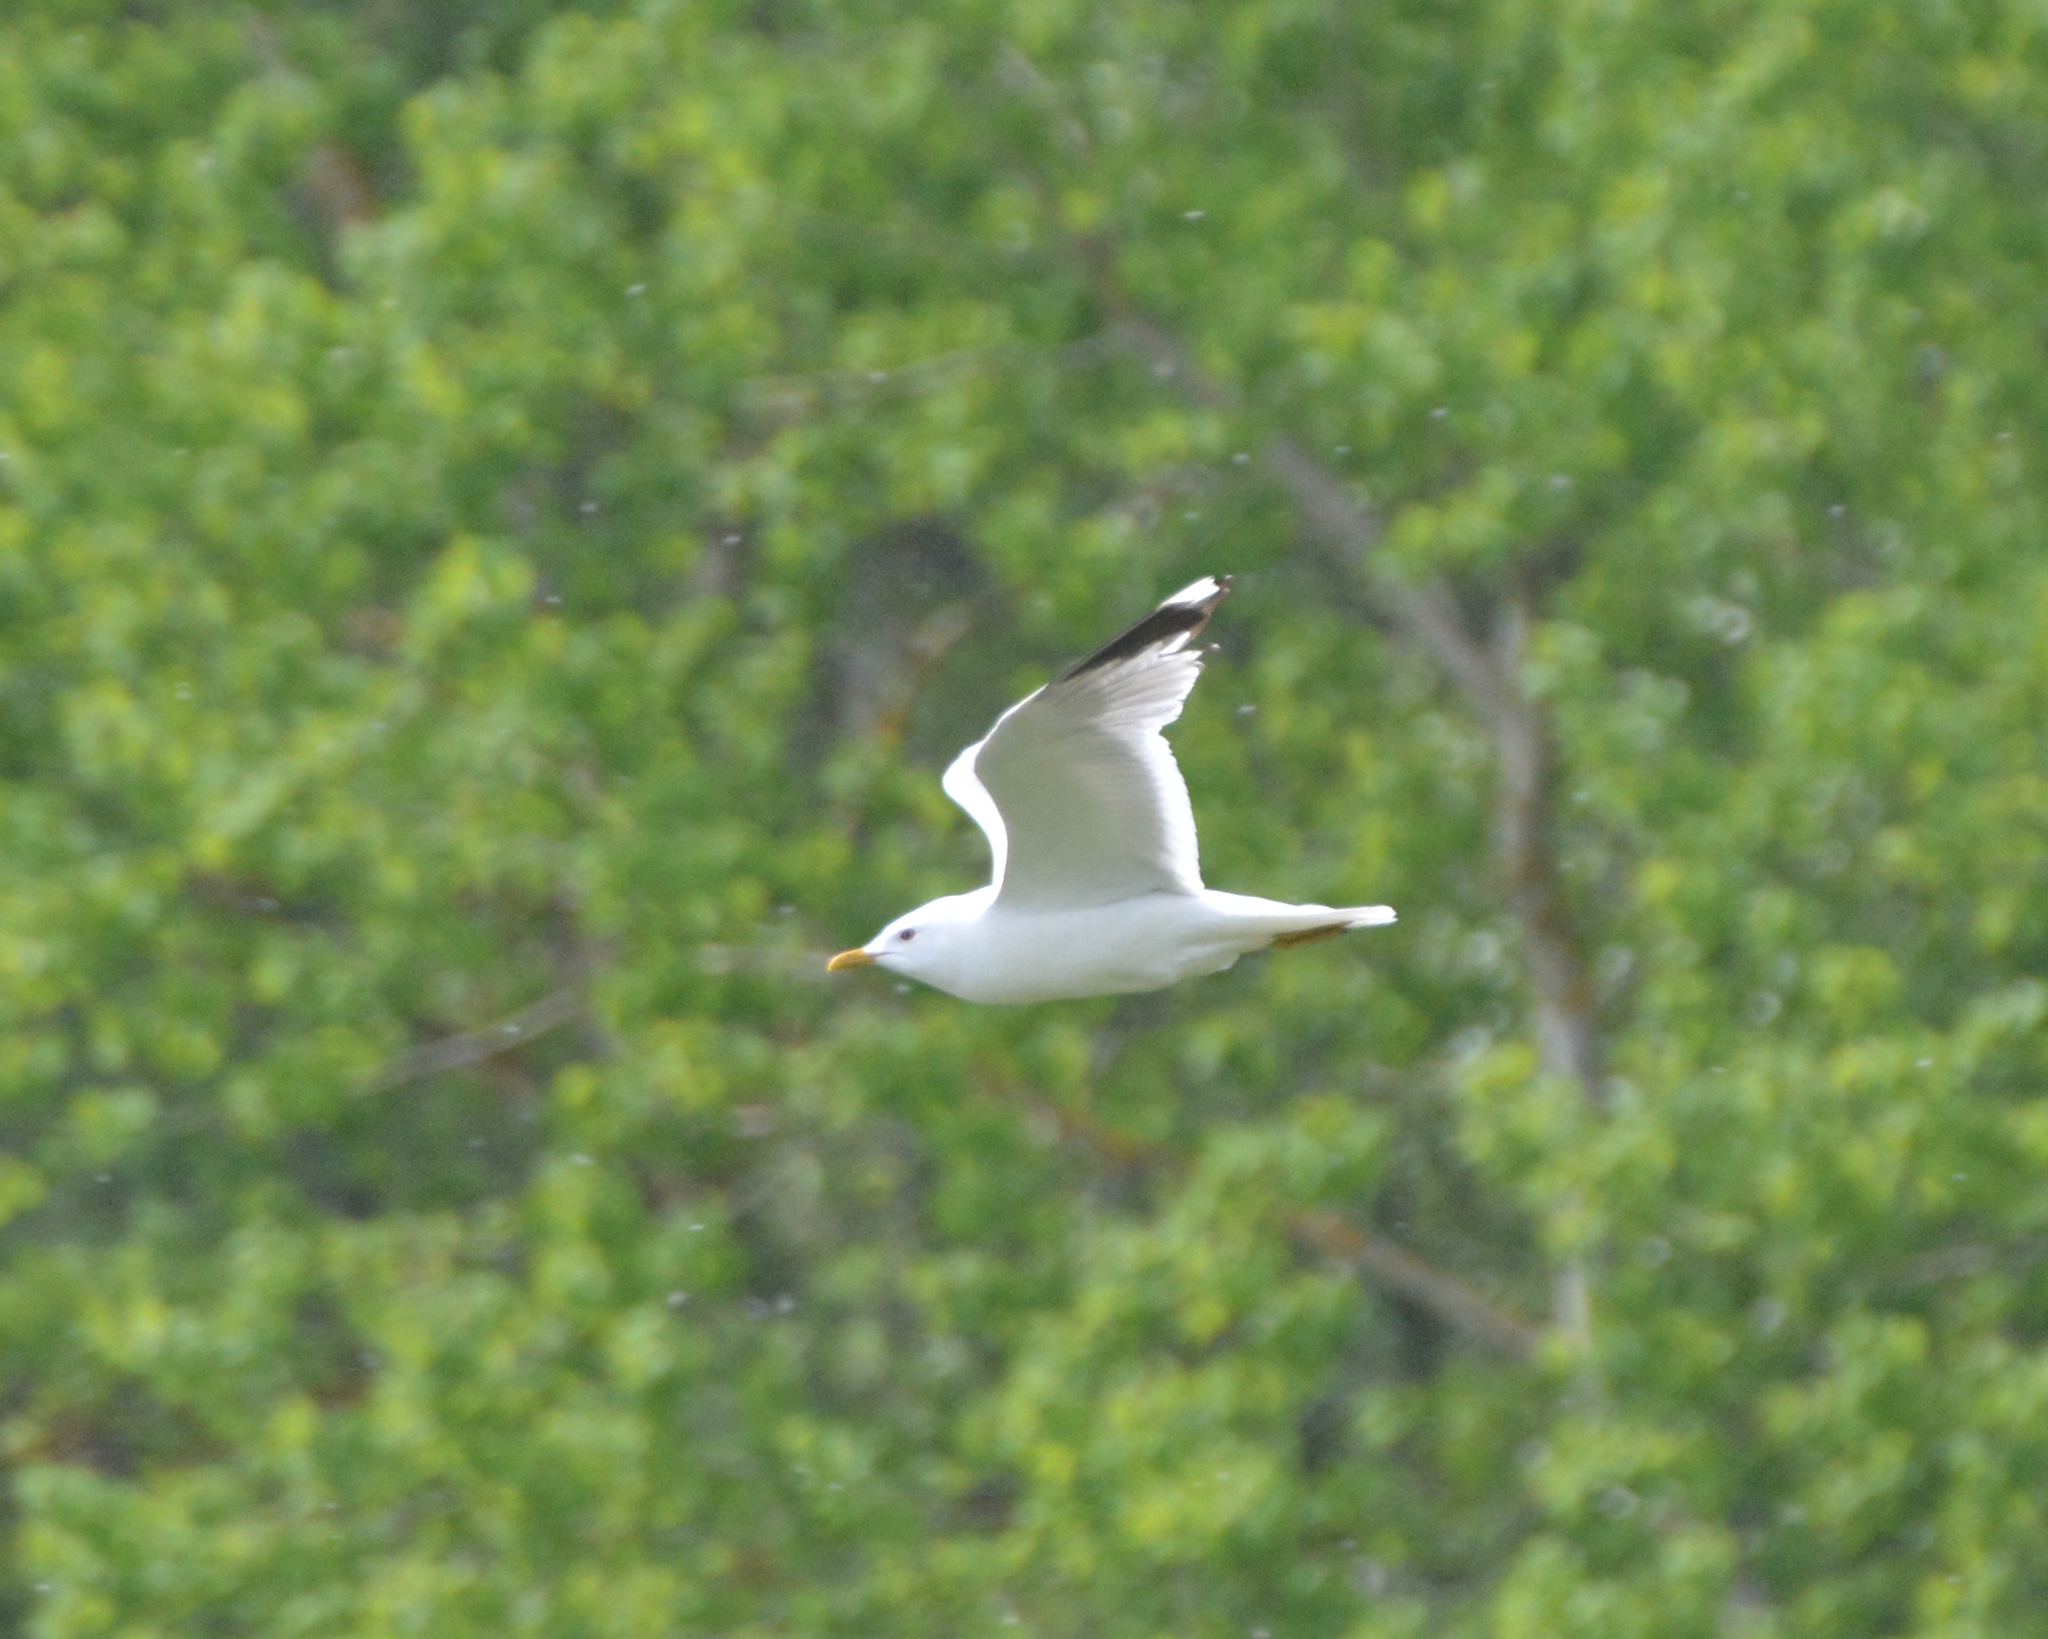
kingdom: Animalia
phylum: Chordata
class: Aves
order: Charadriiformes
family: Laridae
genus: Larus
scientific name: Larus canus
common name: Mew gull
